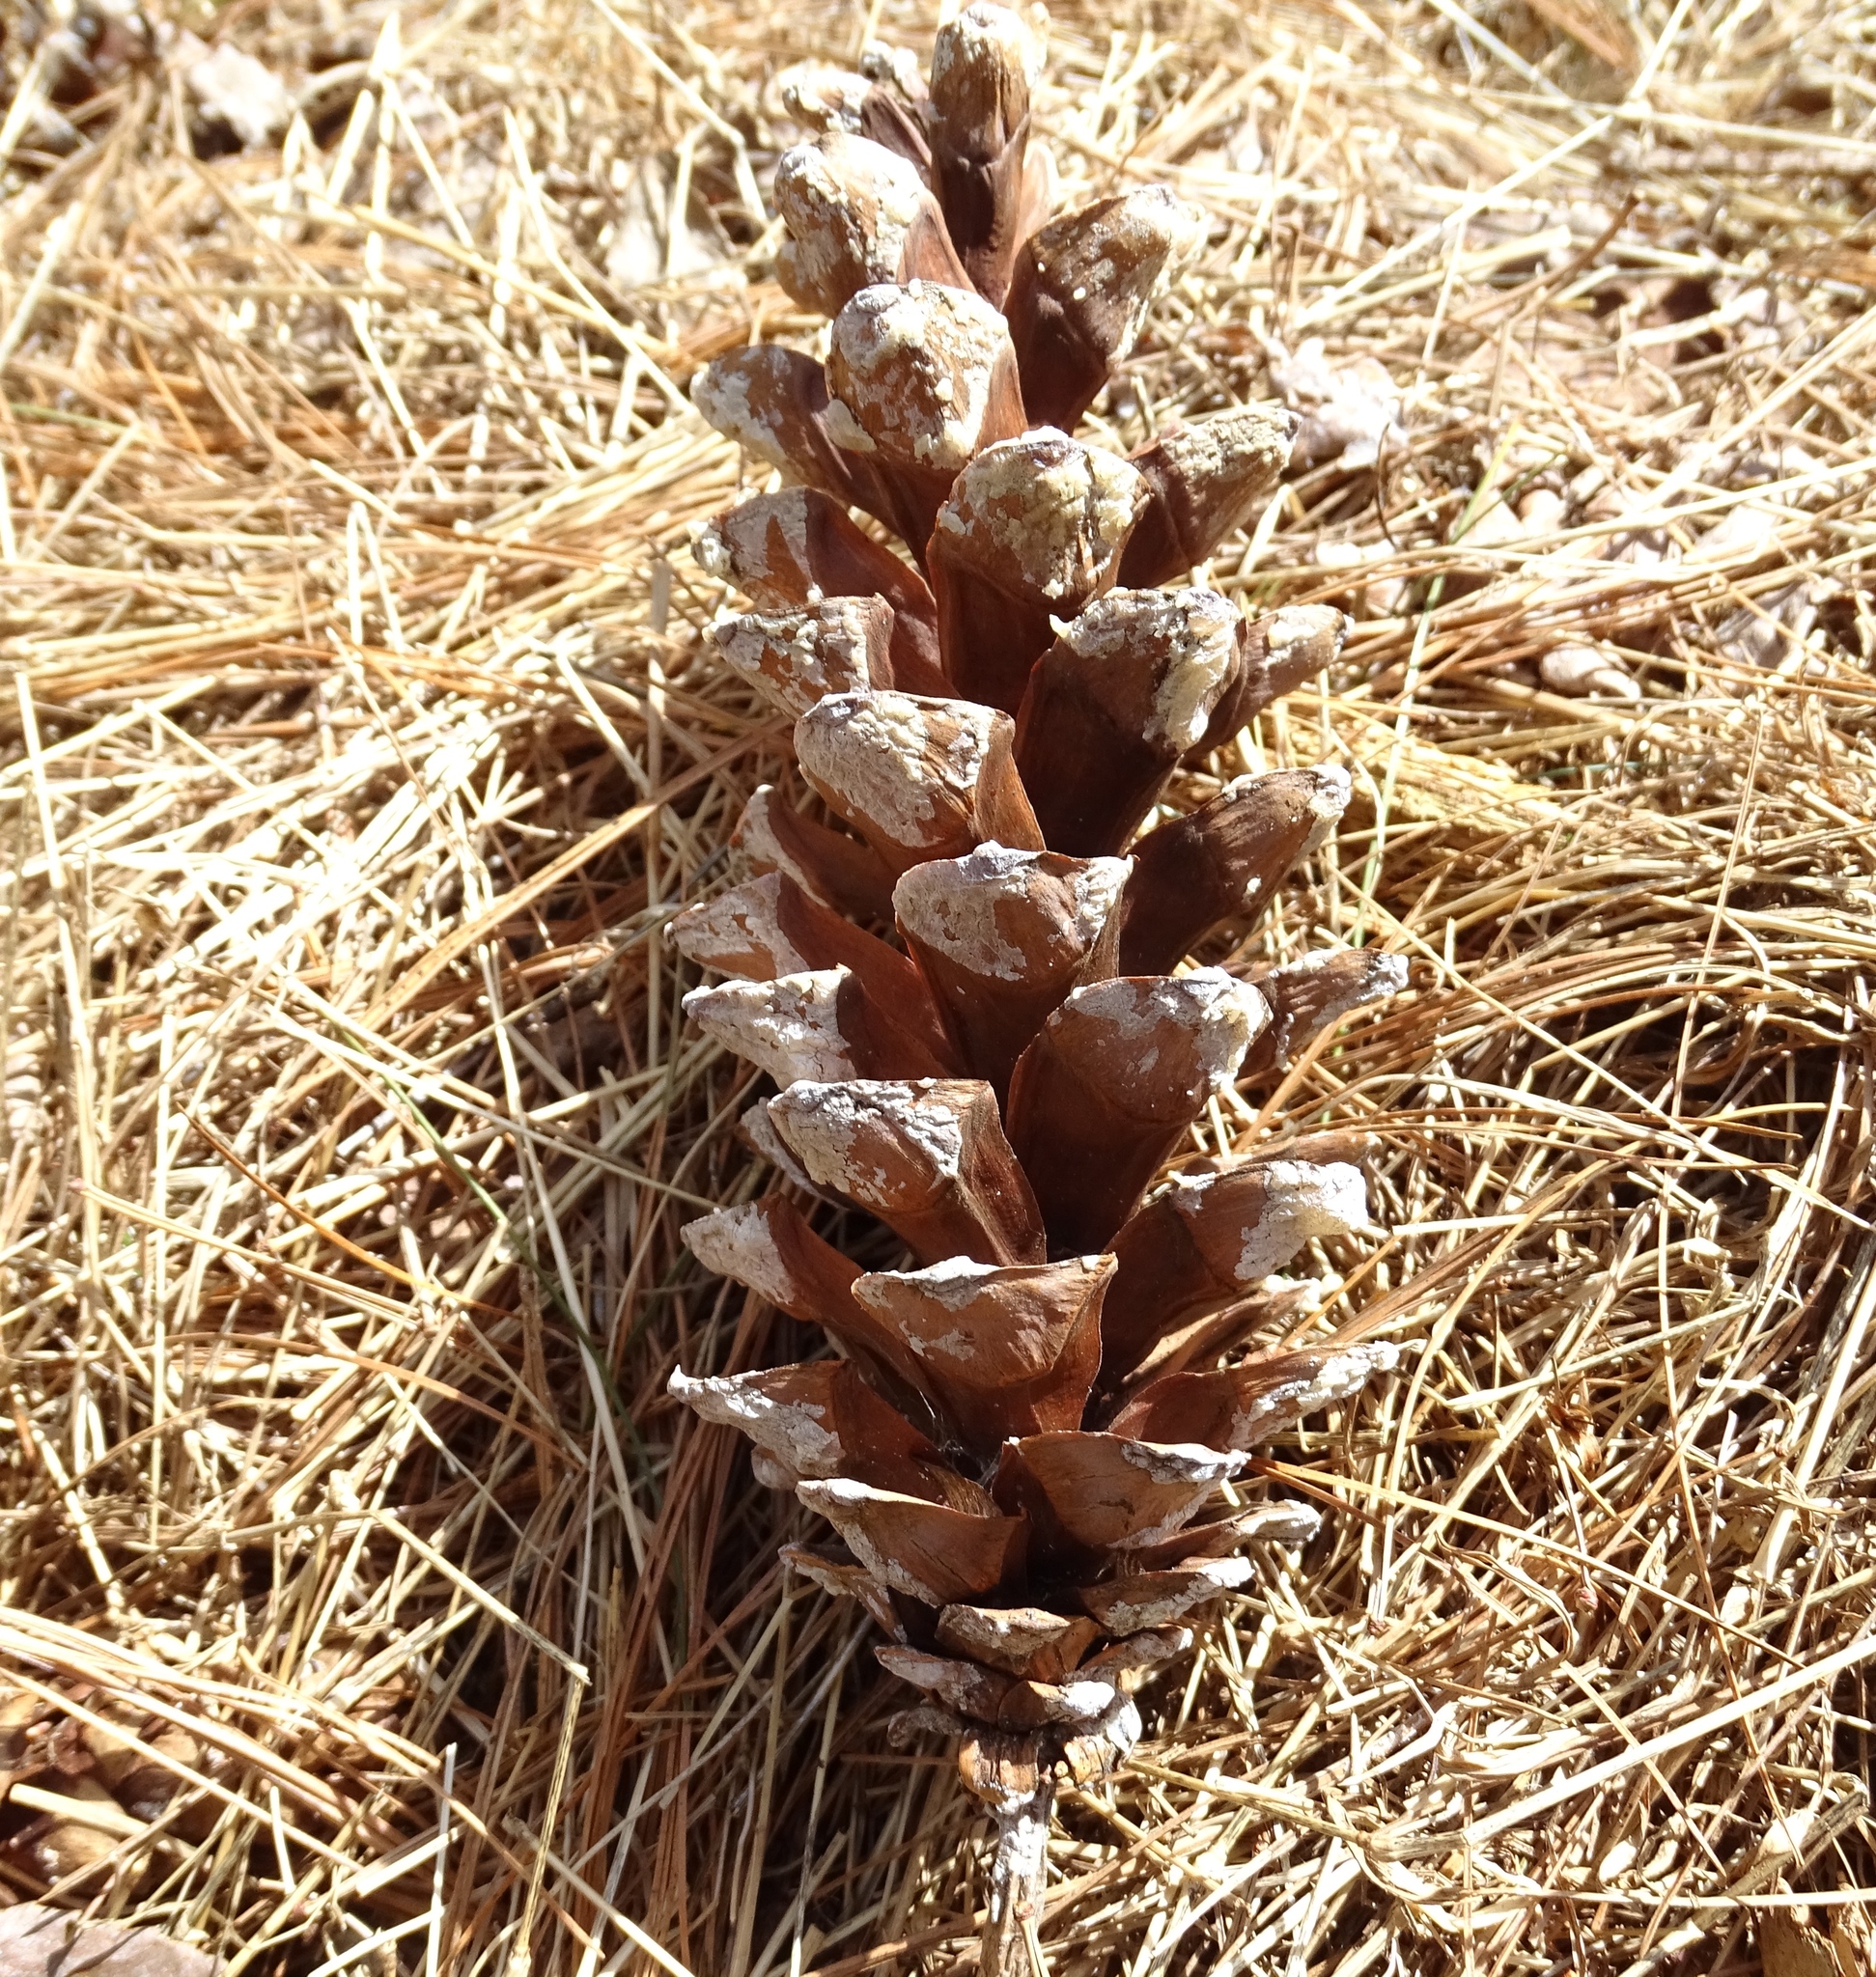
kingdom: Plantae
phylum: Tracheophyta
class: Pinopsida
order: Pinales
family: Pinaceae
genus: Pinus
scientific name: Pinus strobus
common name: Weymouth pine
